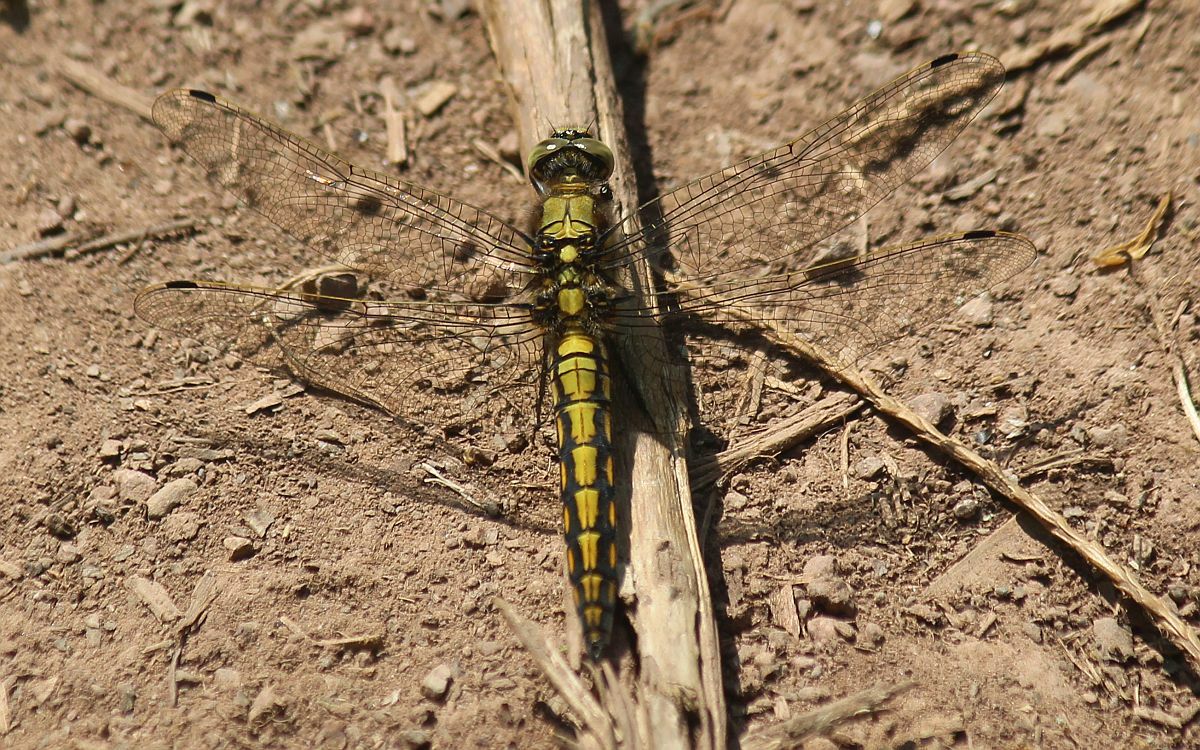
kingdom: Animalia
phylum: Arthropoda
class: Insecta
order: Odonata
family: Libellulidae
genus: Orthetrum
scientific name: Orthetrum cancellatum
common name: Black-tailed skimmer
